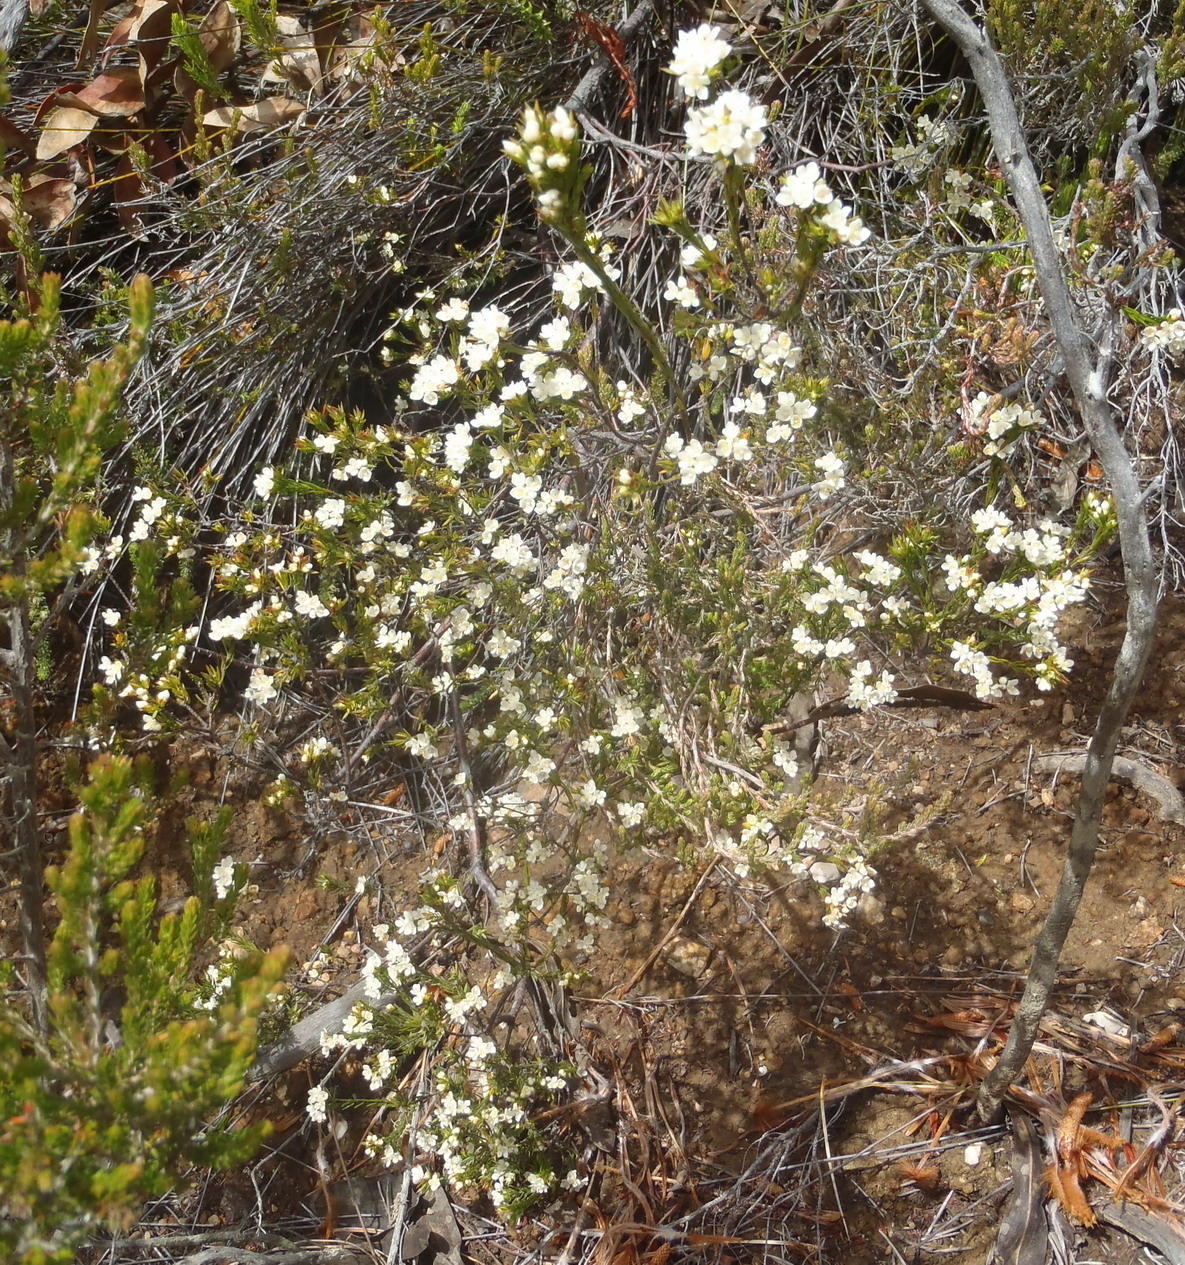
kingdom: Plantae
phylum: Tracheophyta
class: Magnoliopsida
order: Malvales
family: Thymelaeaceae
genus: Lachnaea
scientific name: Lachnaea diosmoides
